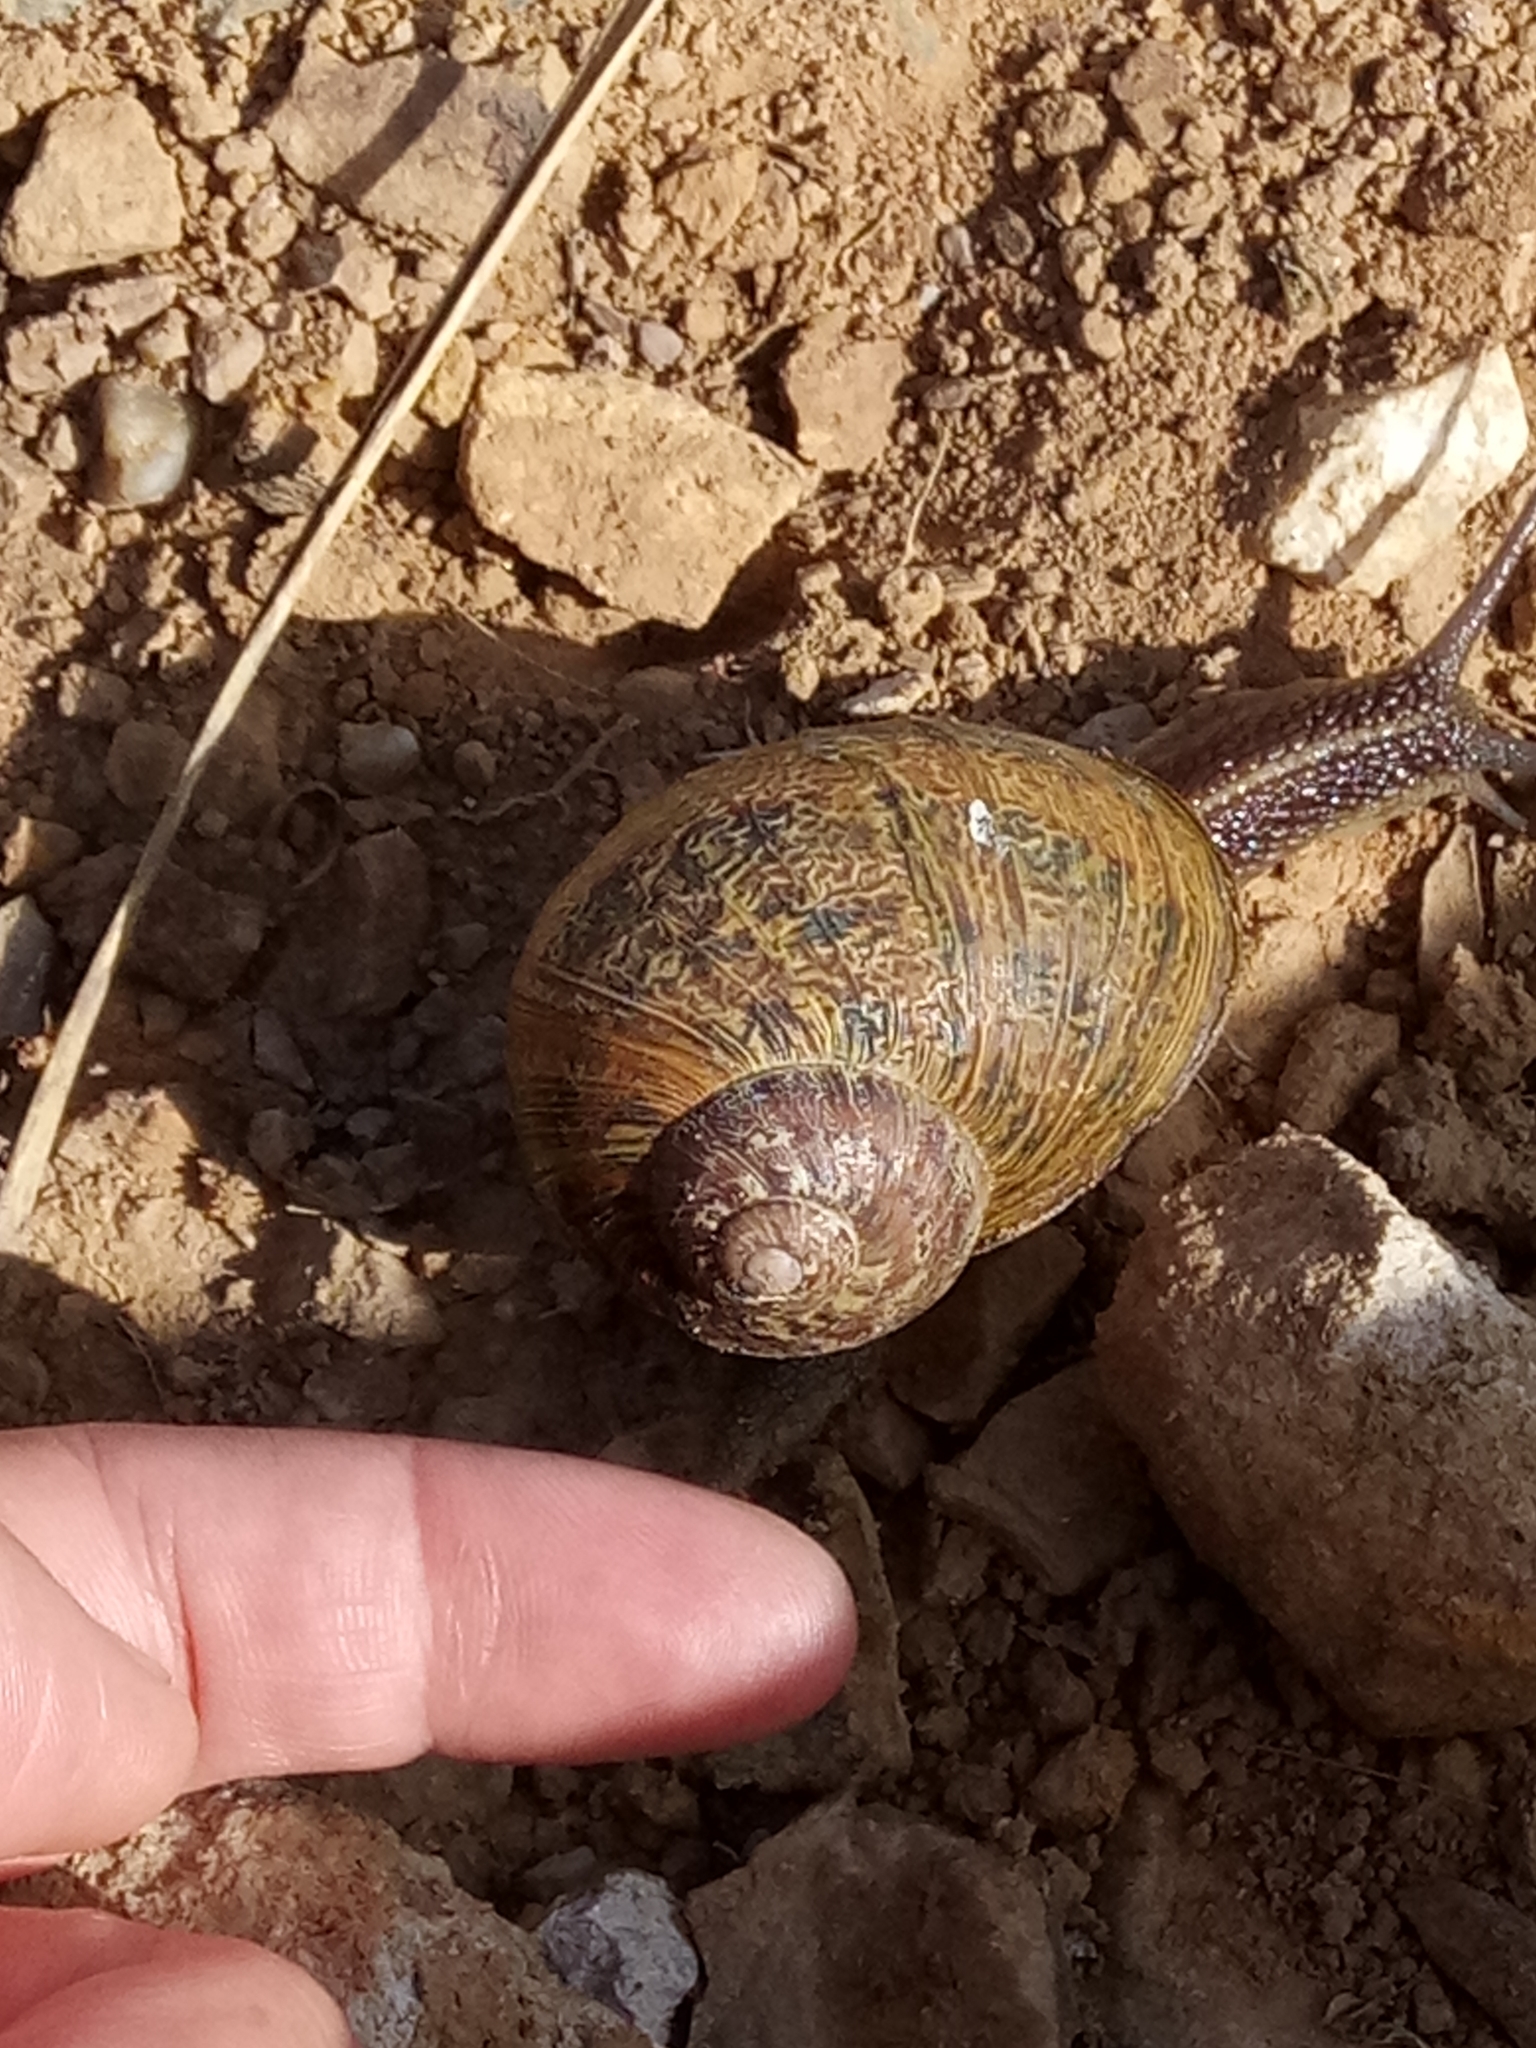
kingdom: Animalia
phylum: Mollusca
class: Gastropoda
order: Stylommatophora
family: Helicidae
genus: Cornu
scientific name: Cornu aspersum
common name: Brown garden snail
